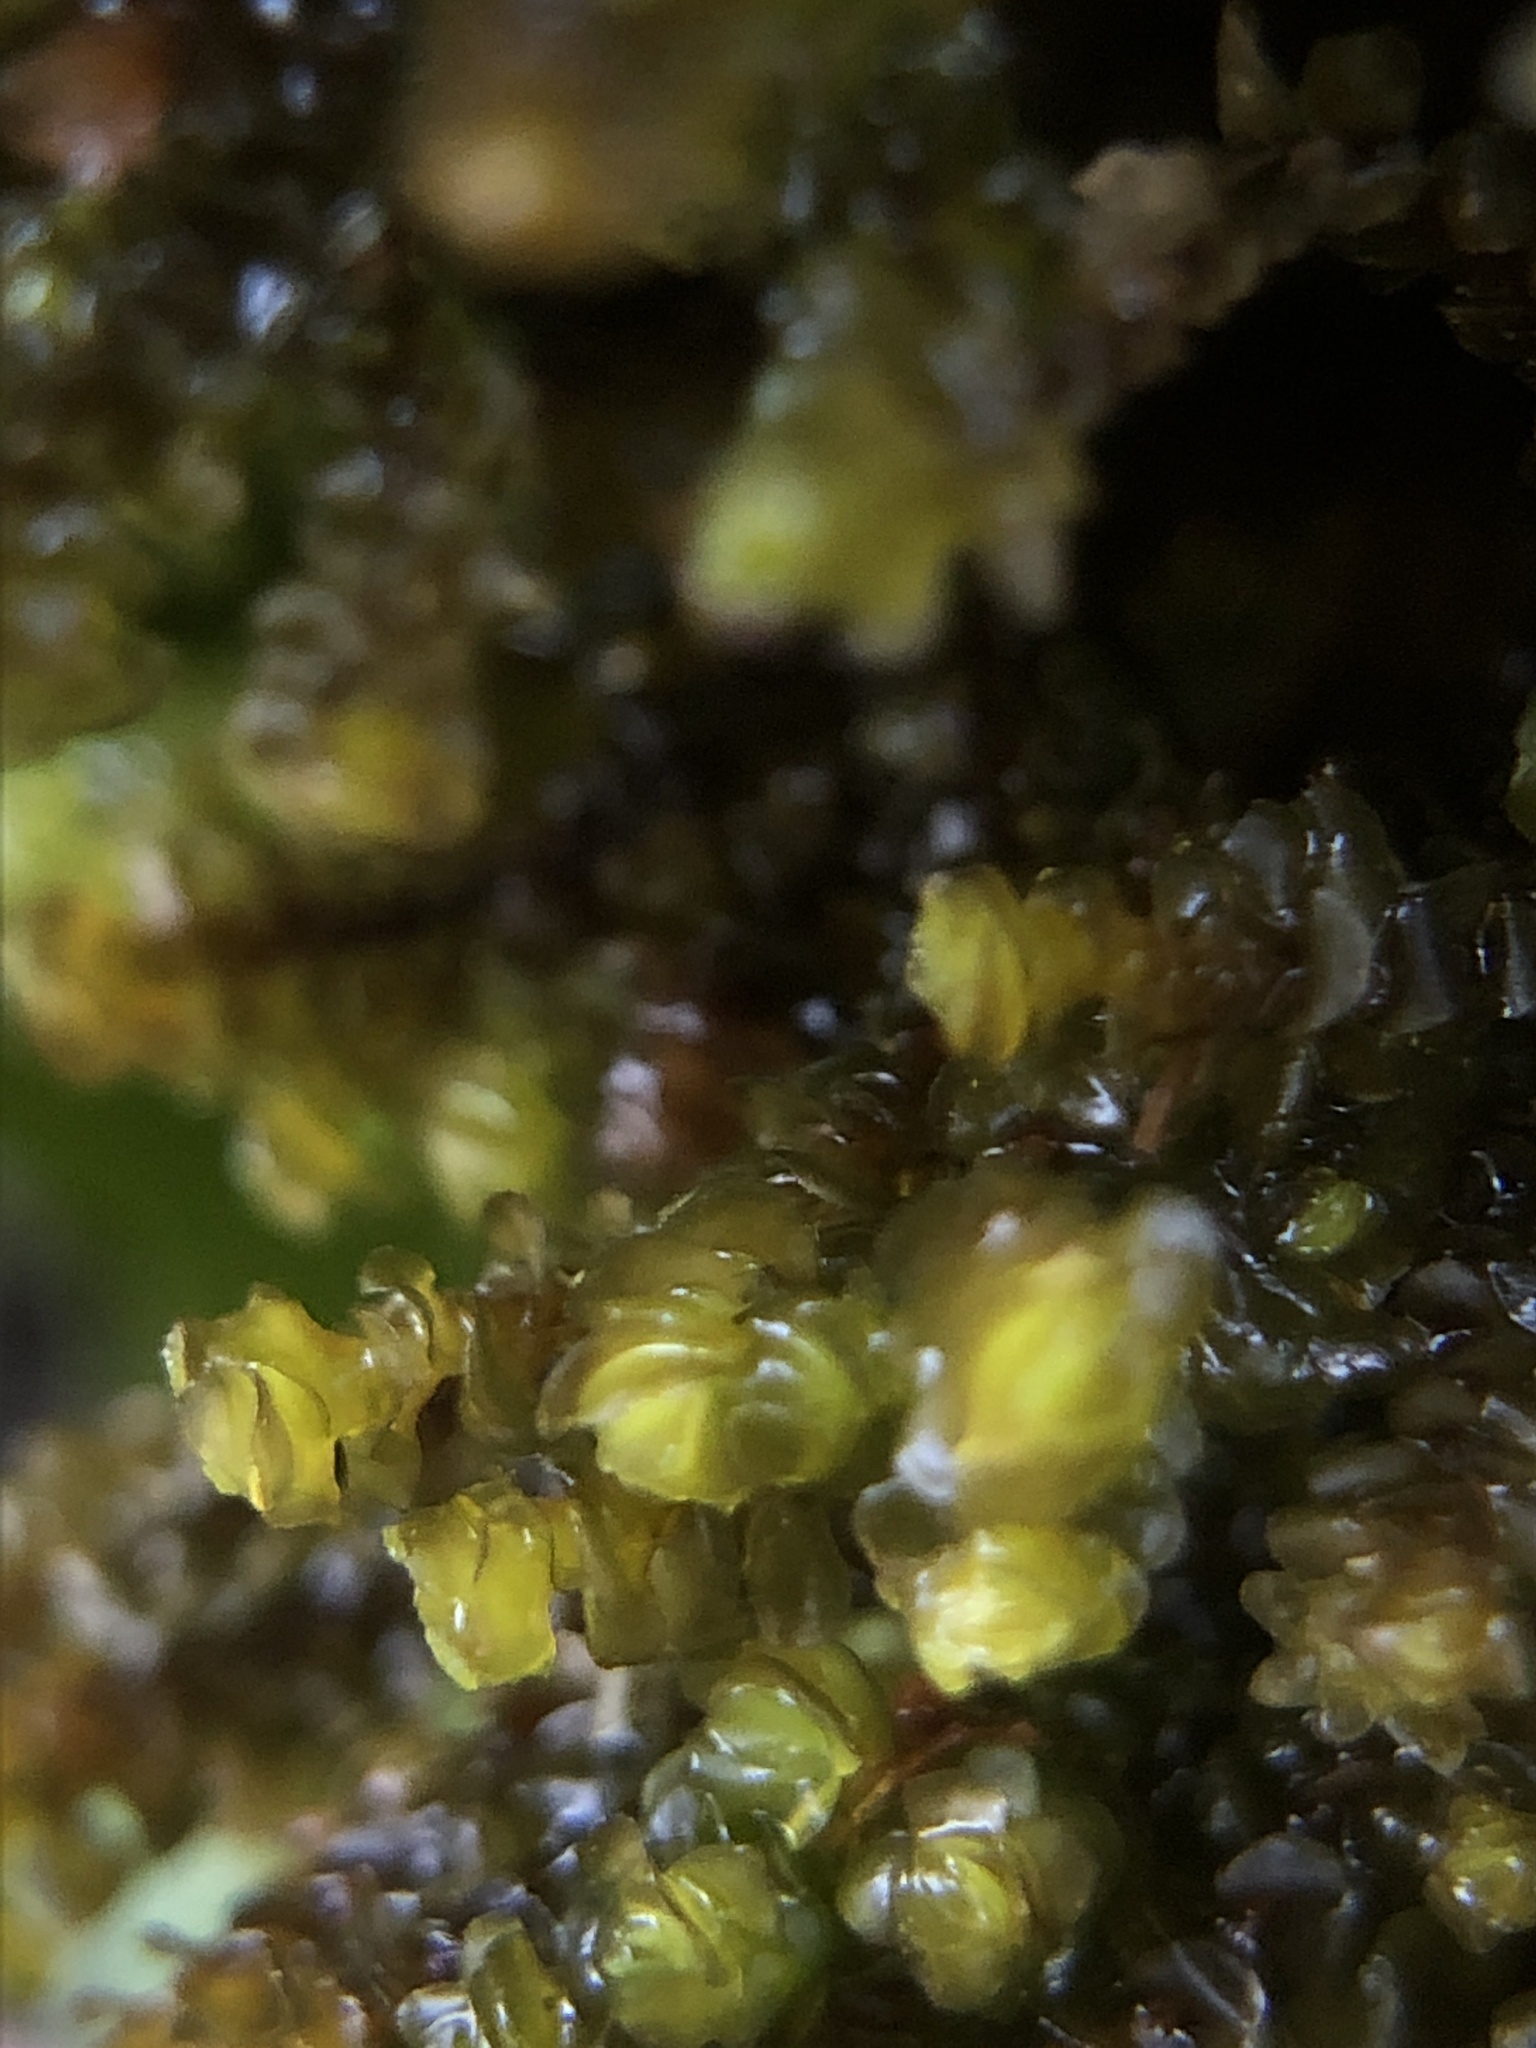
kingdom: Plantae
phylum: Marchantiophyta
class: Jungermanniopsida
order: Jungermanniales
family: Scapaniaceae
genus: Scapania
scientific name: Scapania gracilis
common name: Western earwort
